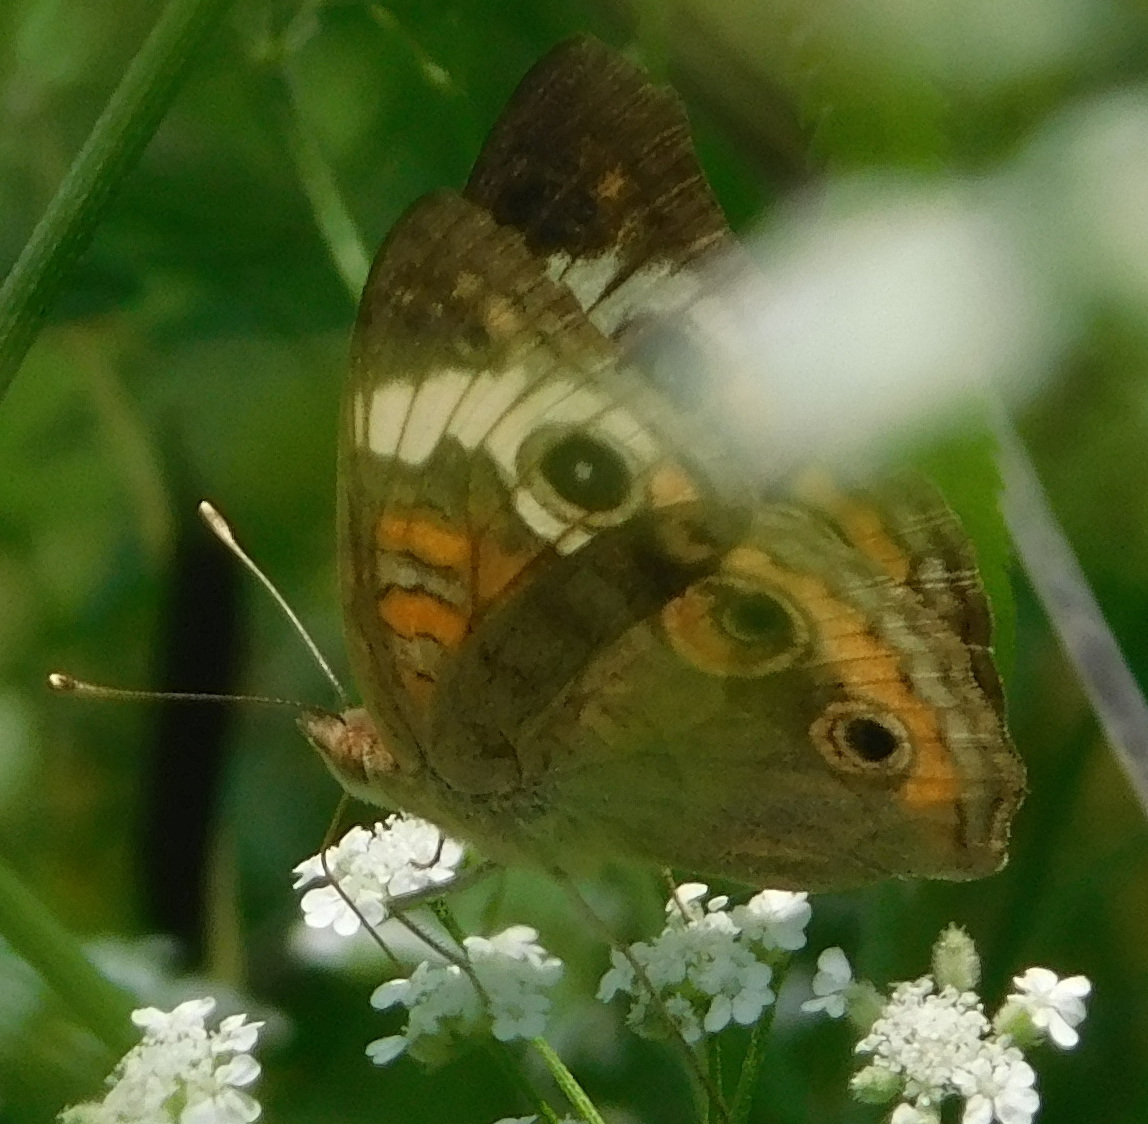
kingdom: Animalia
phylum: Arthropoda
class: Insecta
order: Lepidoptera
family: Nymphalidae
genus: Junonia
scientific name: Junonia coenia
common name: Common buckeye
